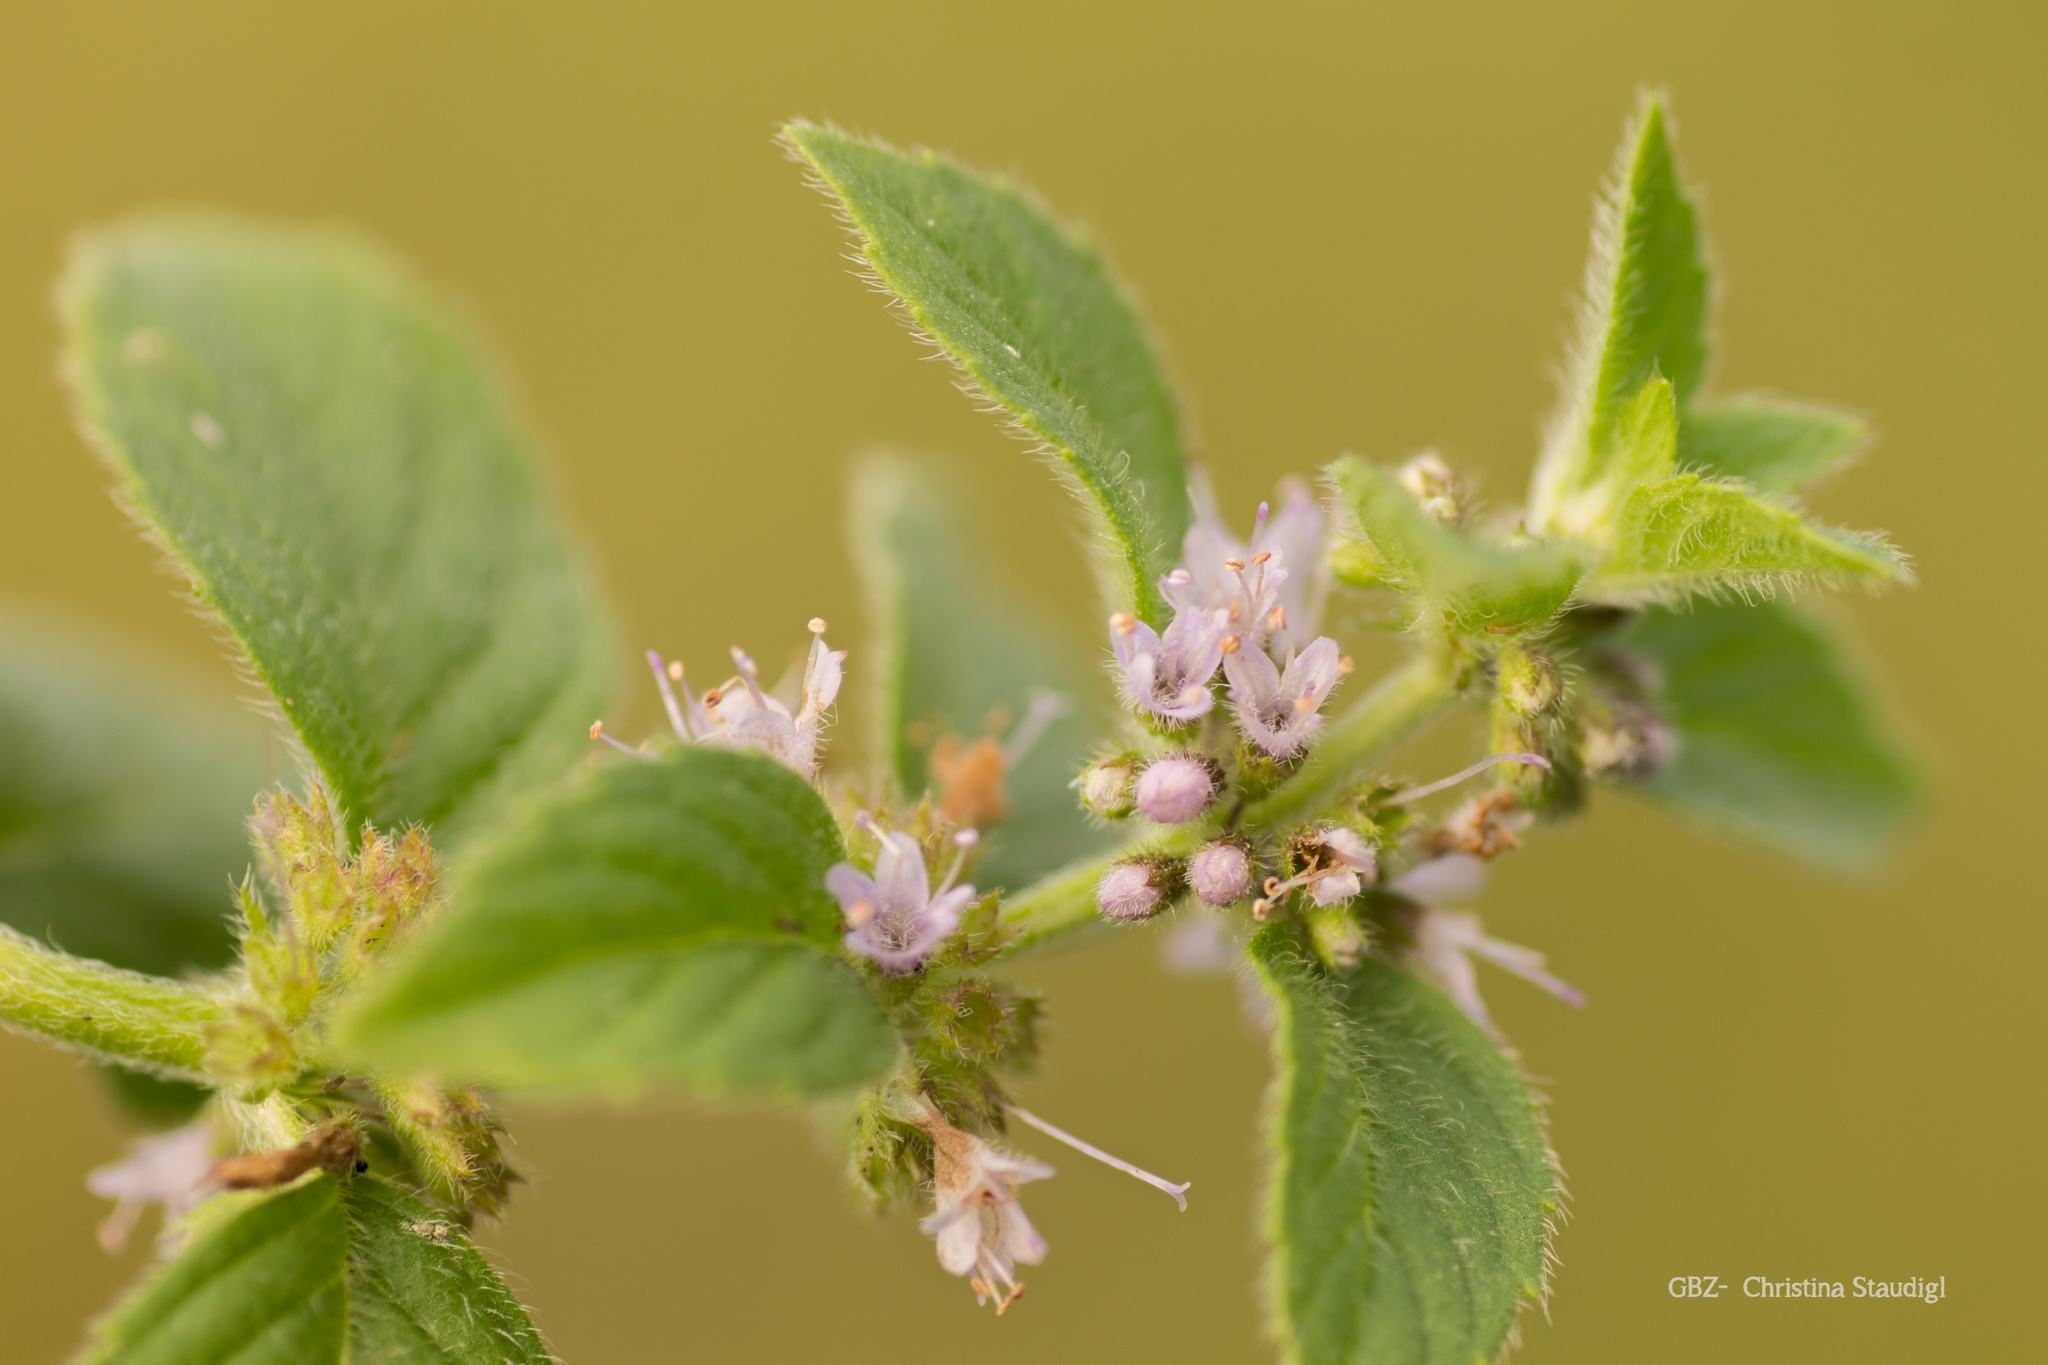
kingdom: Plantae
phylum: Tracheophyta
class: Magnoliopsida
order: Lamiales
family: Lamiaceae
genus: Mentha
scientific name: Mentha aquatica
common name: Water mint
